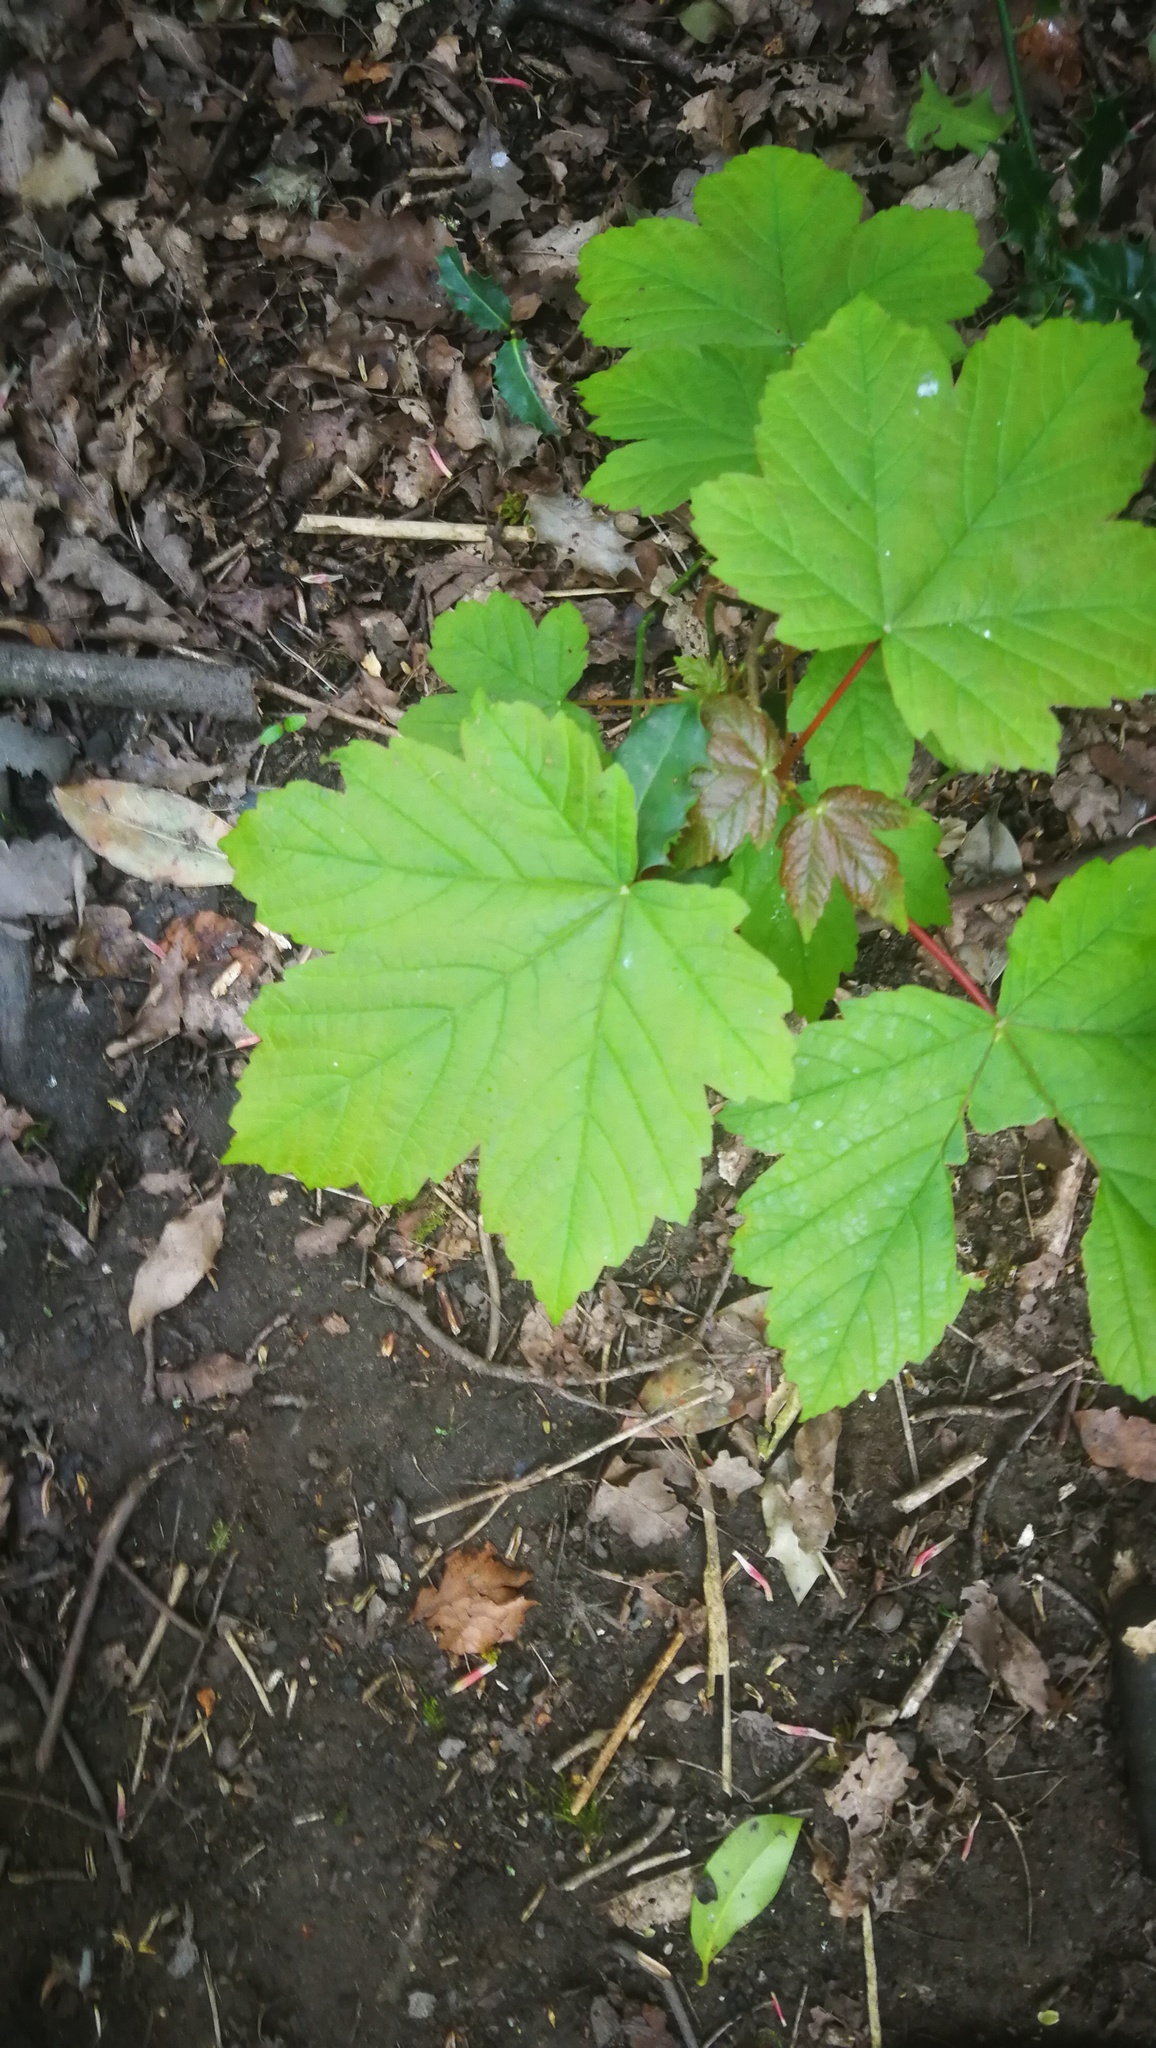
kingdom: Plantae
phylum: Tracheophyta
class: Magnoliopsida
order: Sapindales
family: Sapindaceae
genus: Acer
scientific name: Acer pseudoplatanus
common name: Sycamore
